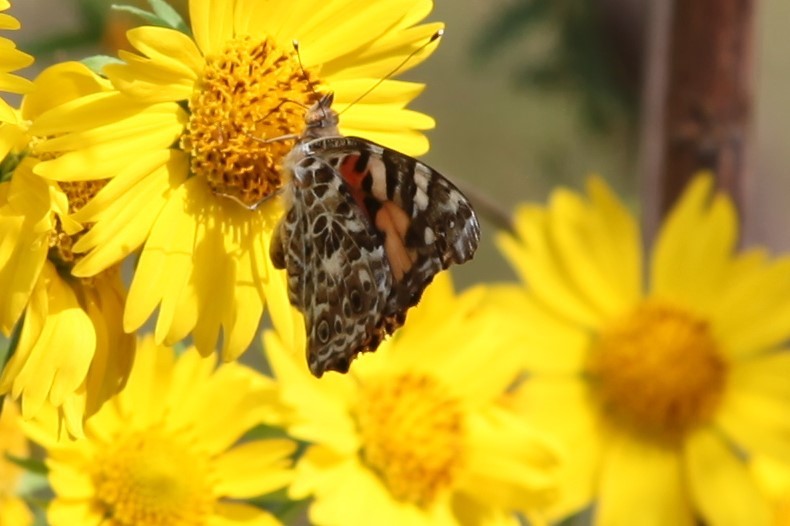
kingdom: Animalia
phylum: Arthropoda
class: Insecta
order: Lepidoptera
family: Nymphalidae
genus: Vanessa
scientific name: Vanessa cardui
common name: Painted lady
